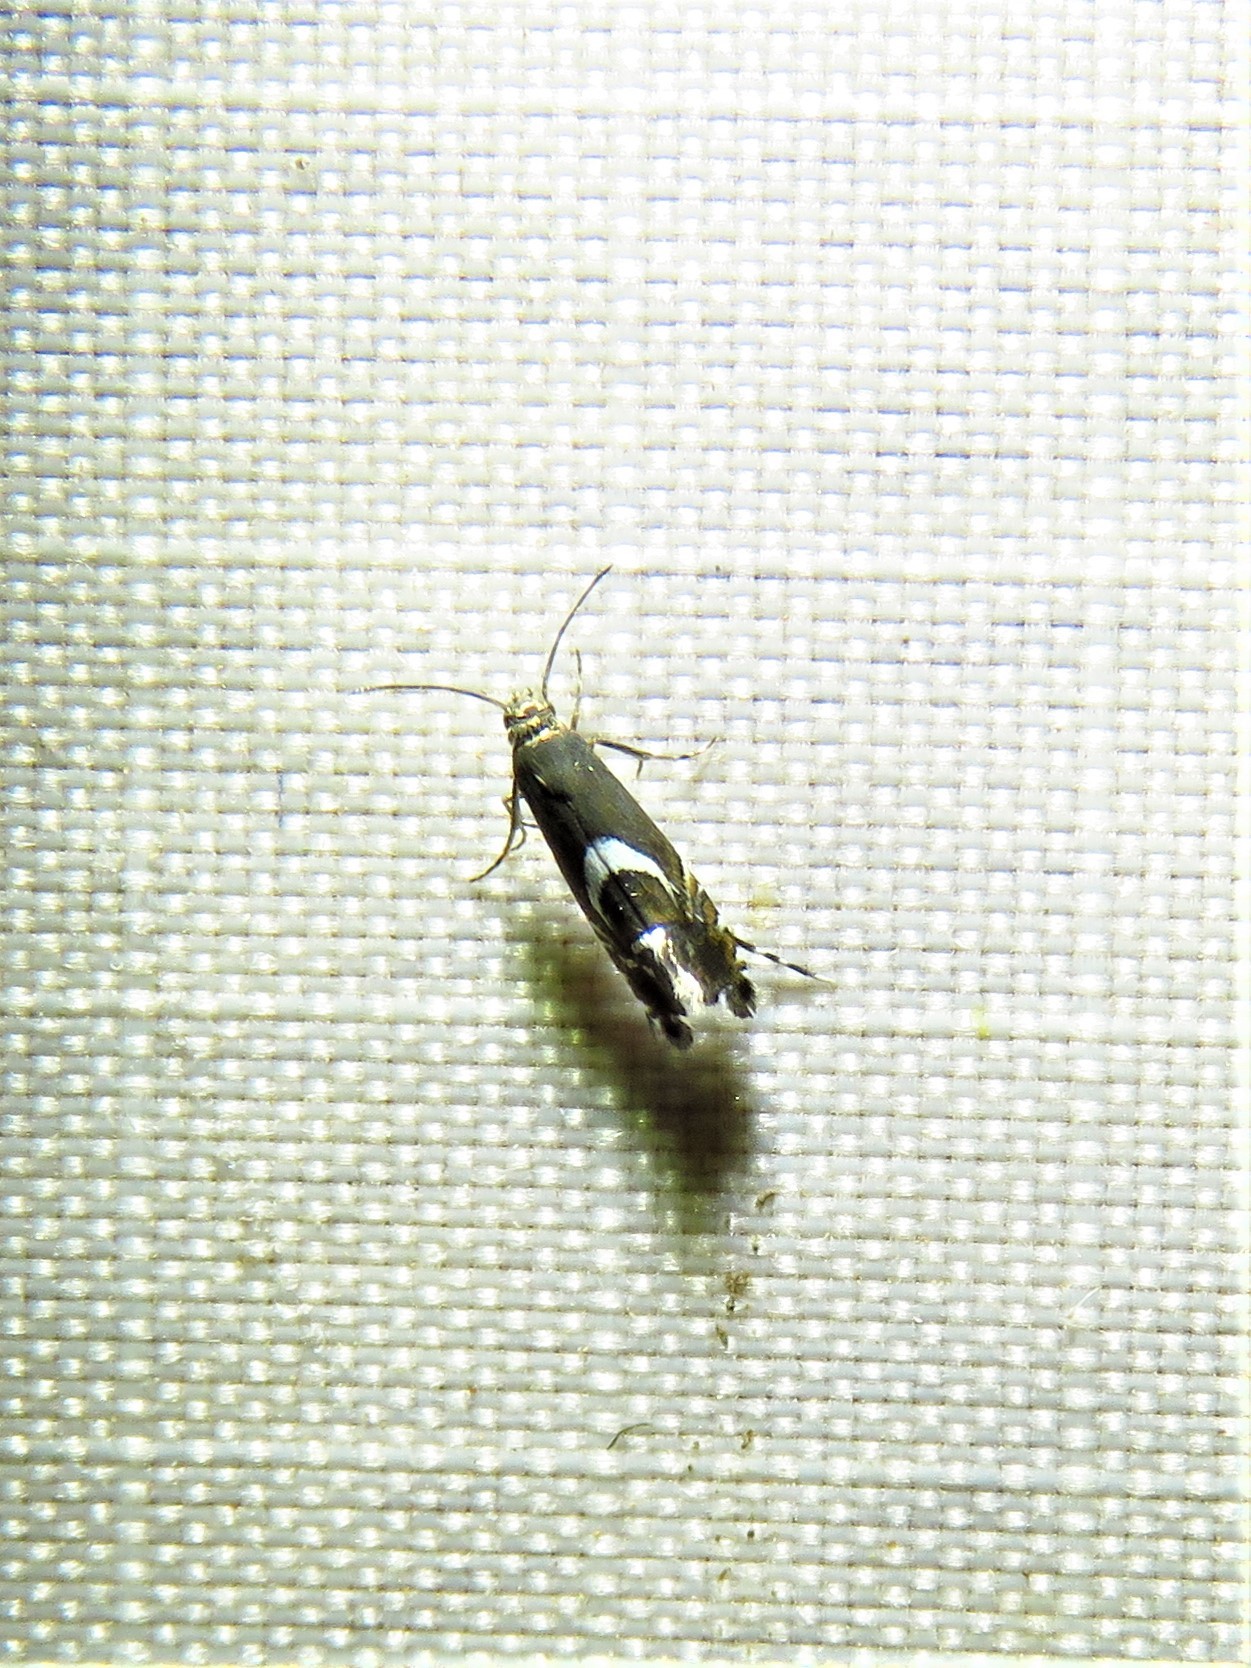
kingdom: Animalia
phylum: Arthropoda
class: Insecta
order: Lepidoptera
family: Glyphipterigidae
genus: Glyphipterix
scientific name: Glyphipterix Diploschizia impigritella
